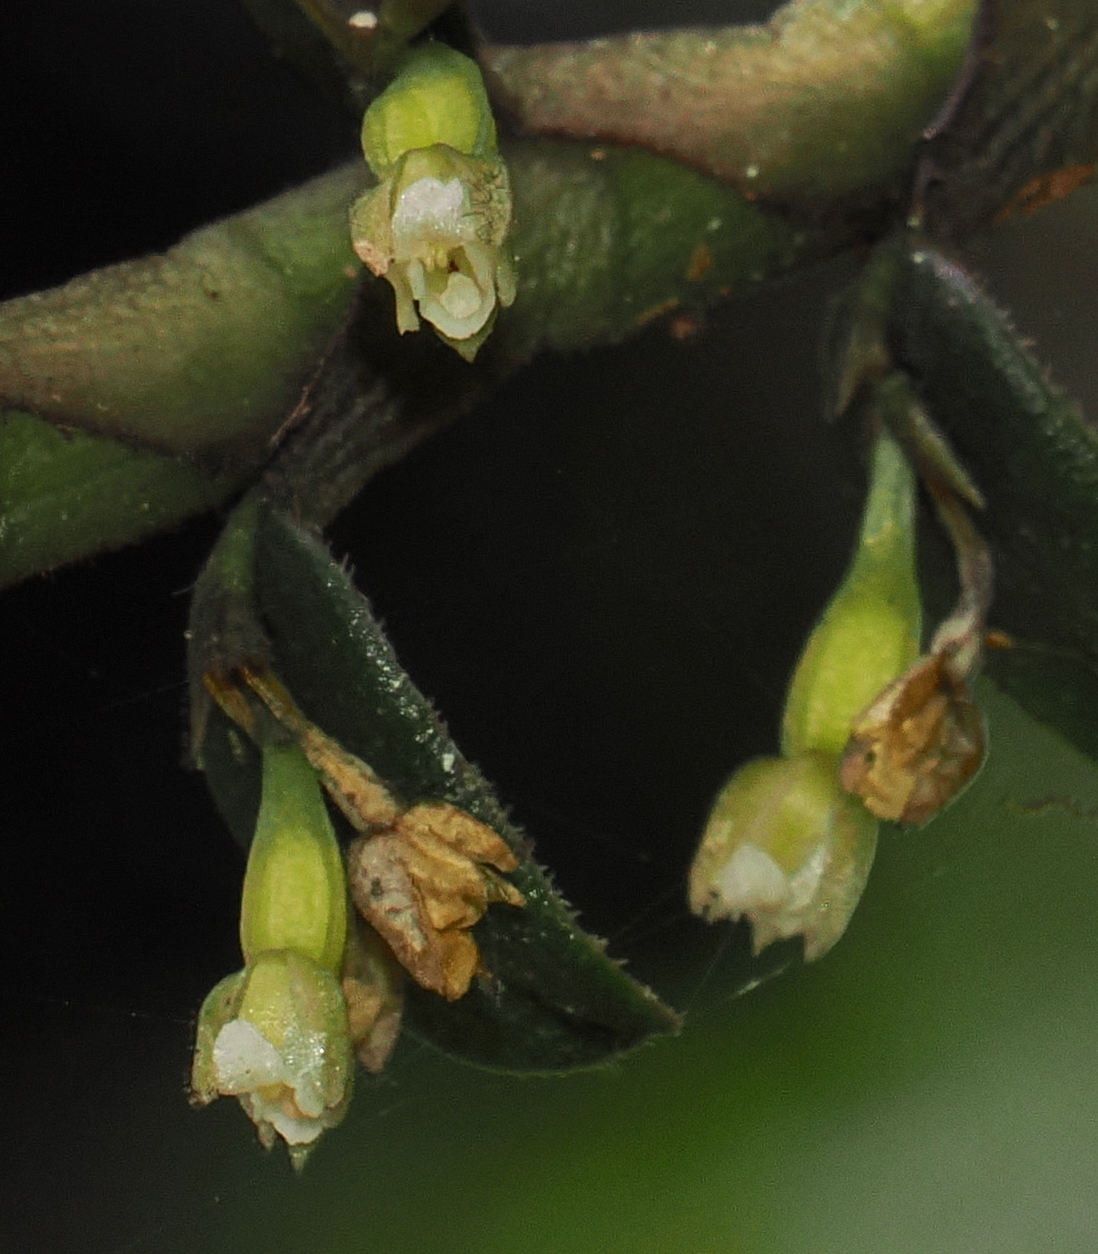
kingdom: Plantae
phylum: Tracheophyta
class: Liliopsida
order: Asparagales
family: Orchidaceae
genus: Fernandezia
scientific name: Fernandezia crystallina
